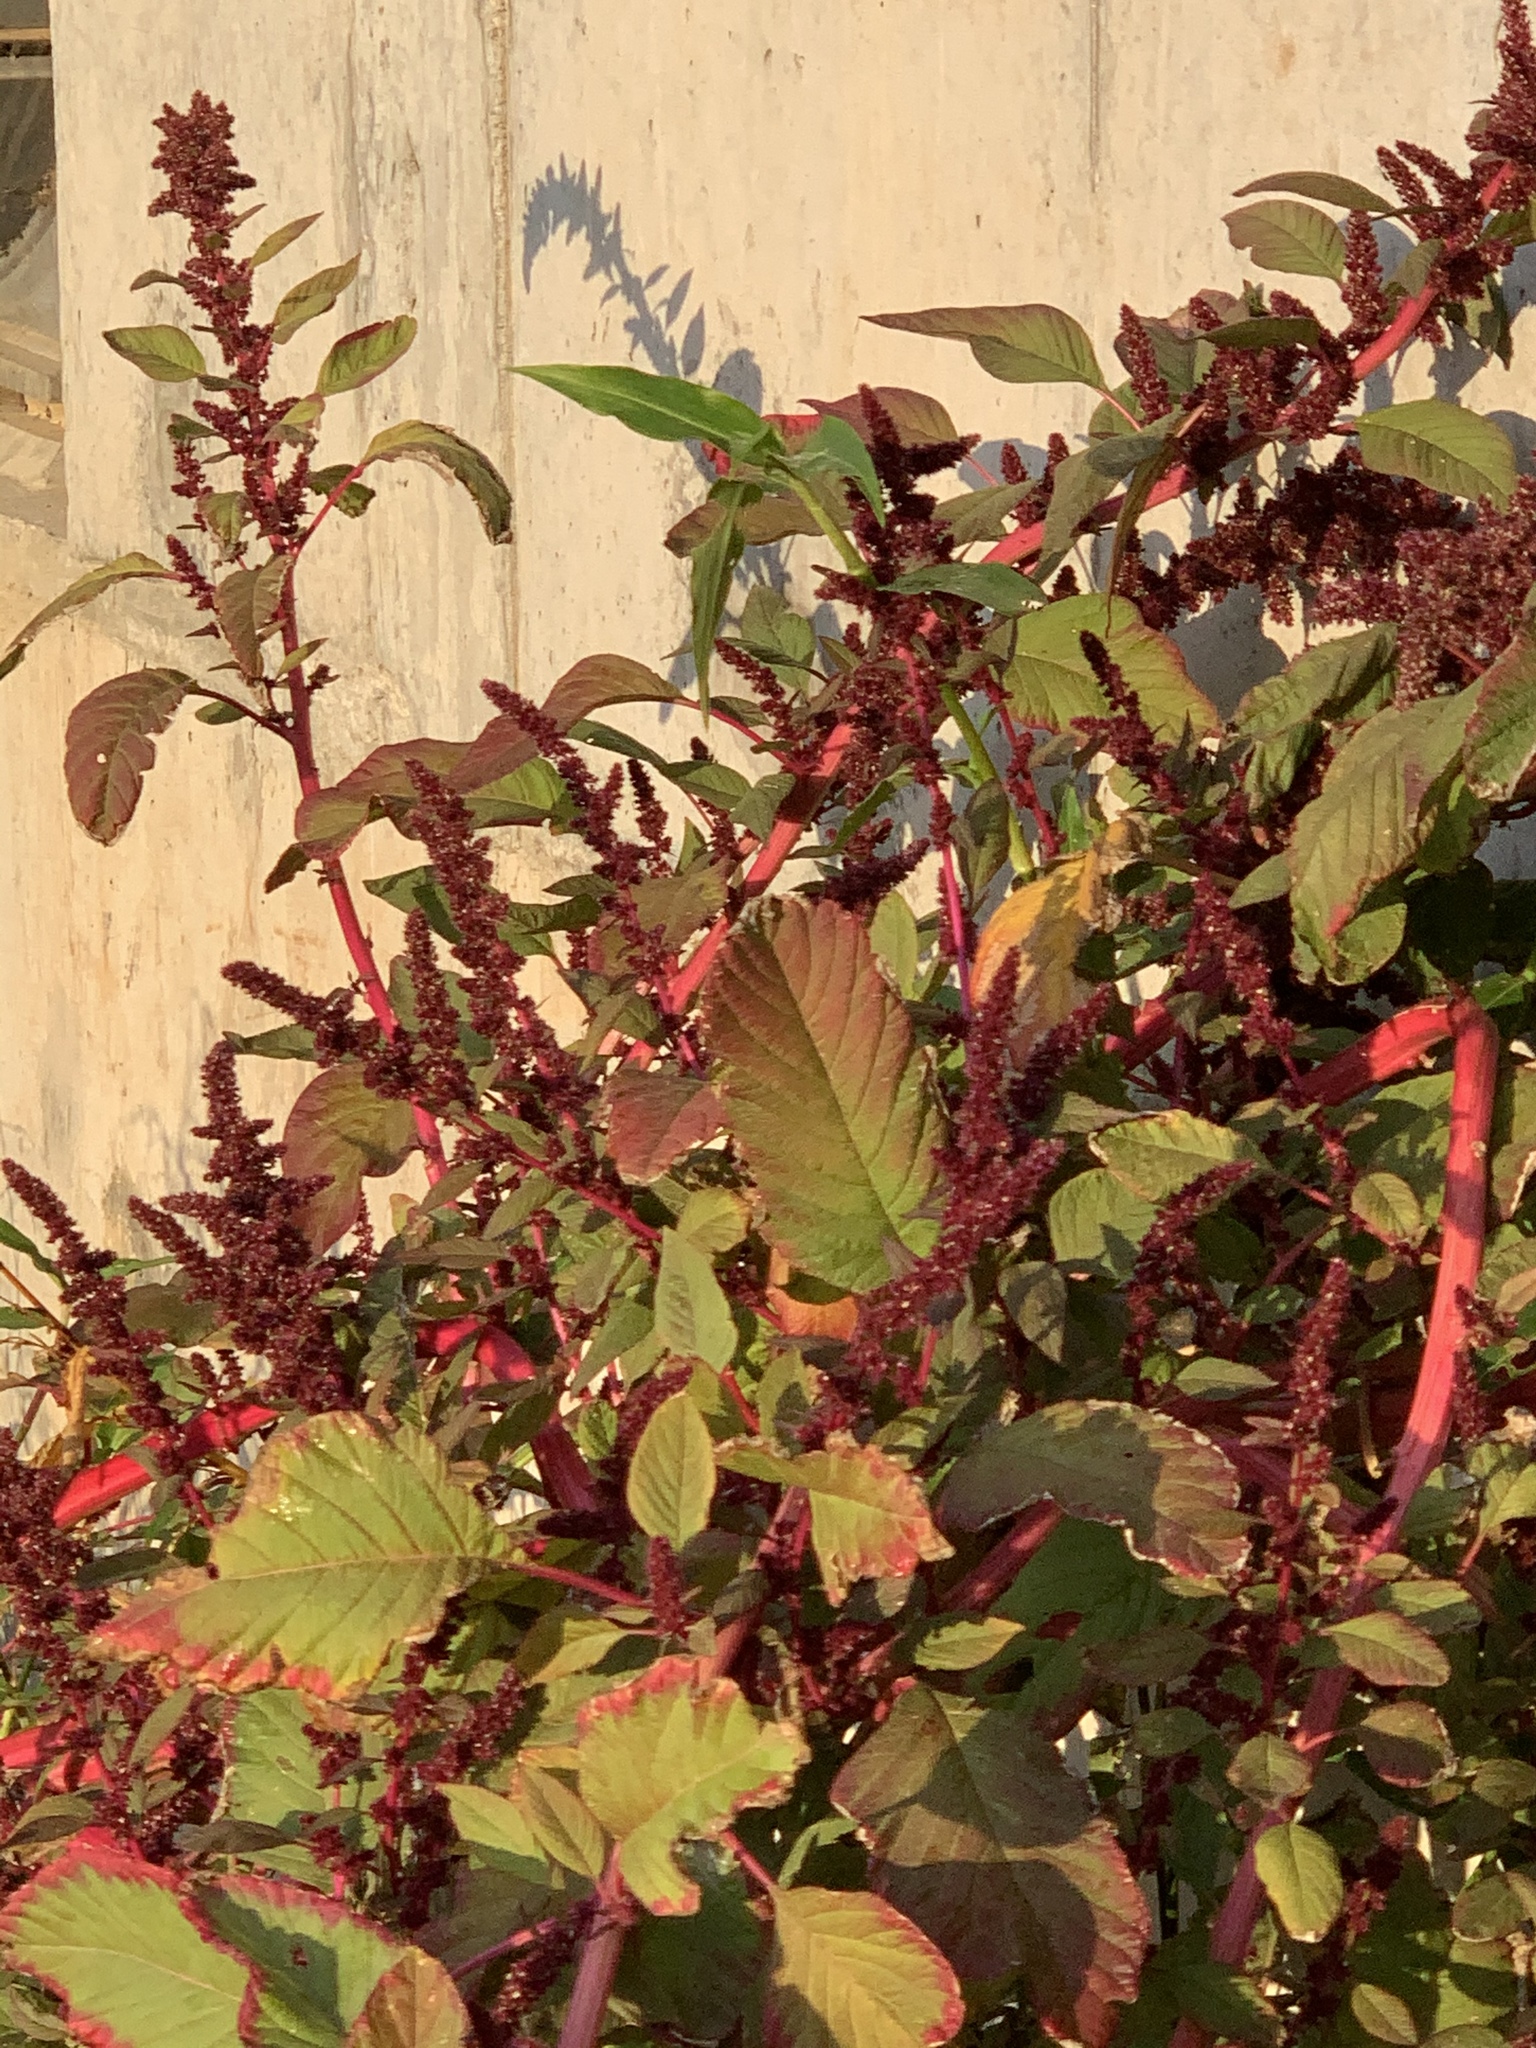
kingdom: Plantae
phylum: Tracheophyta
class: Magnoliopsida
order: Caryophyllales
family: Amaranthaceae
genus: Amaranthus
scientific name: Amaranthus cruentus
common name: Purple amaranth
